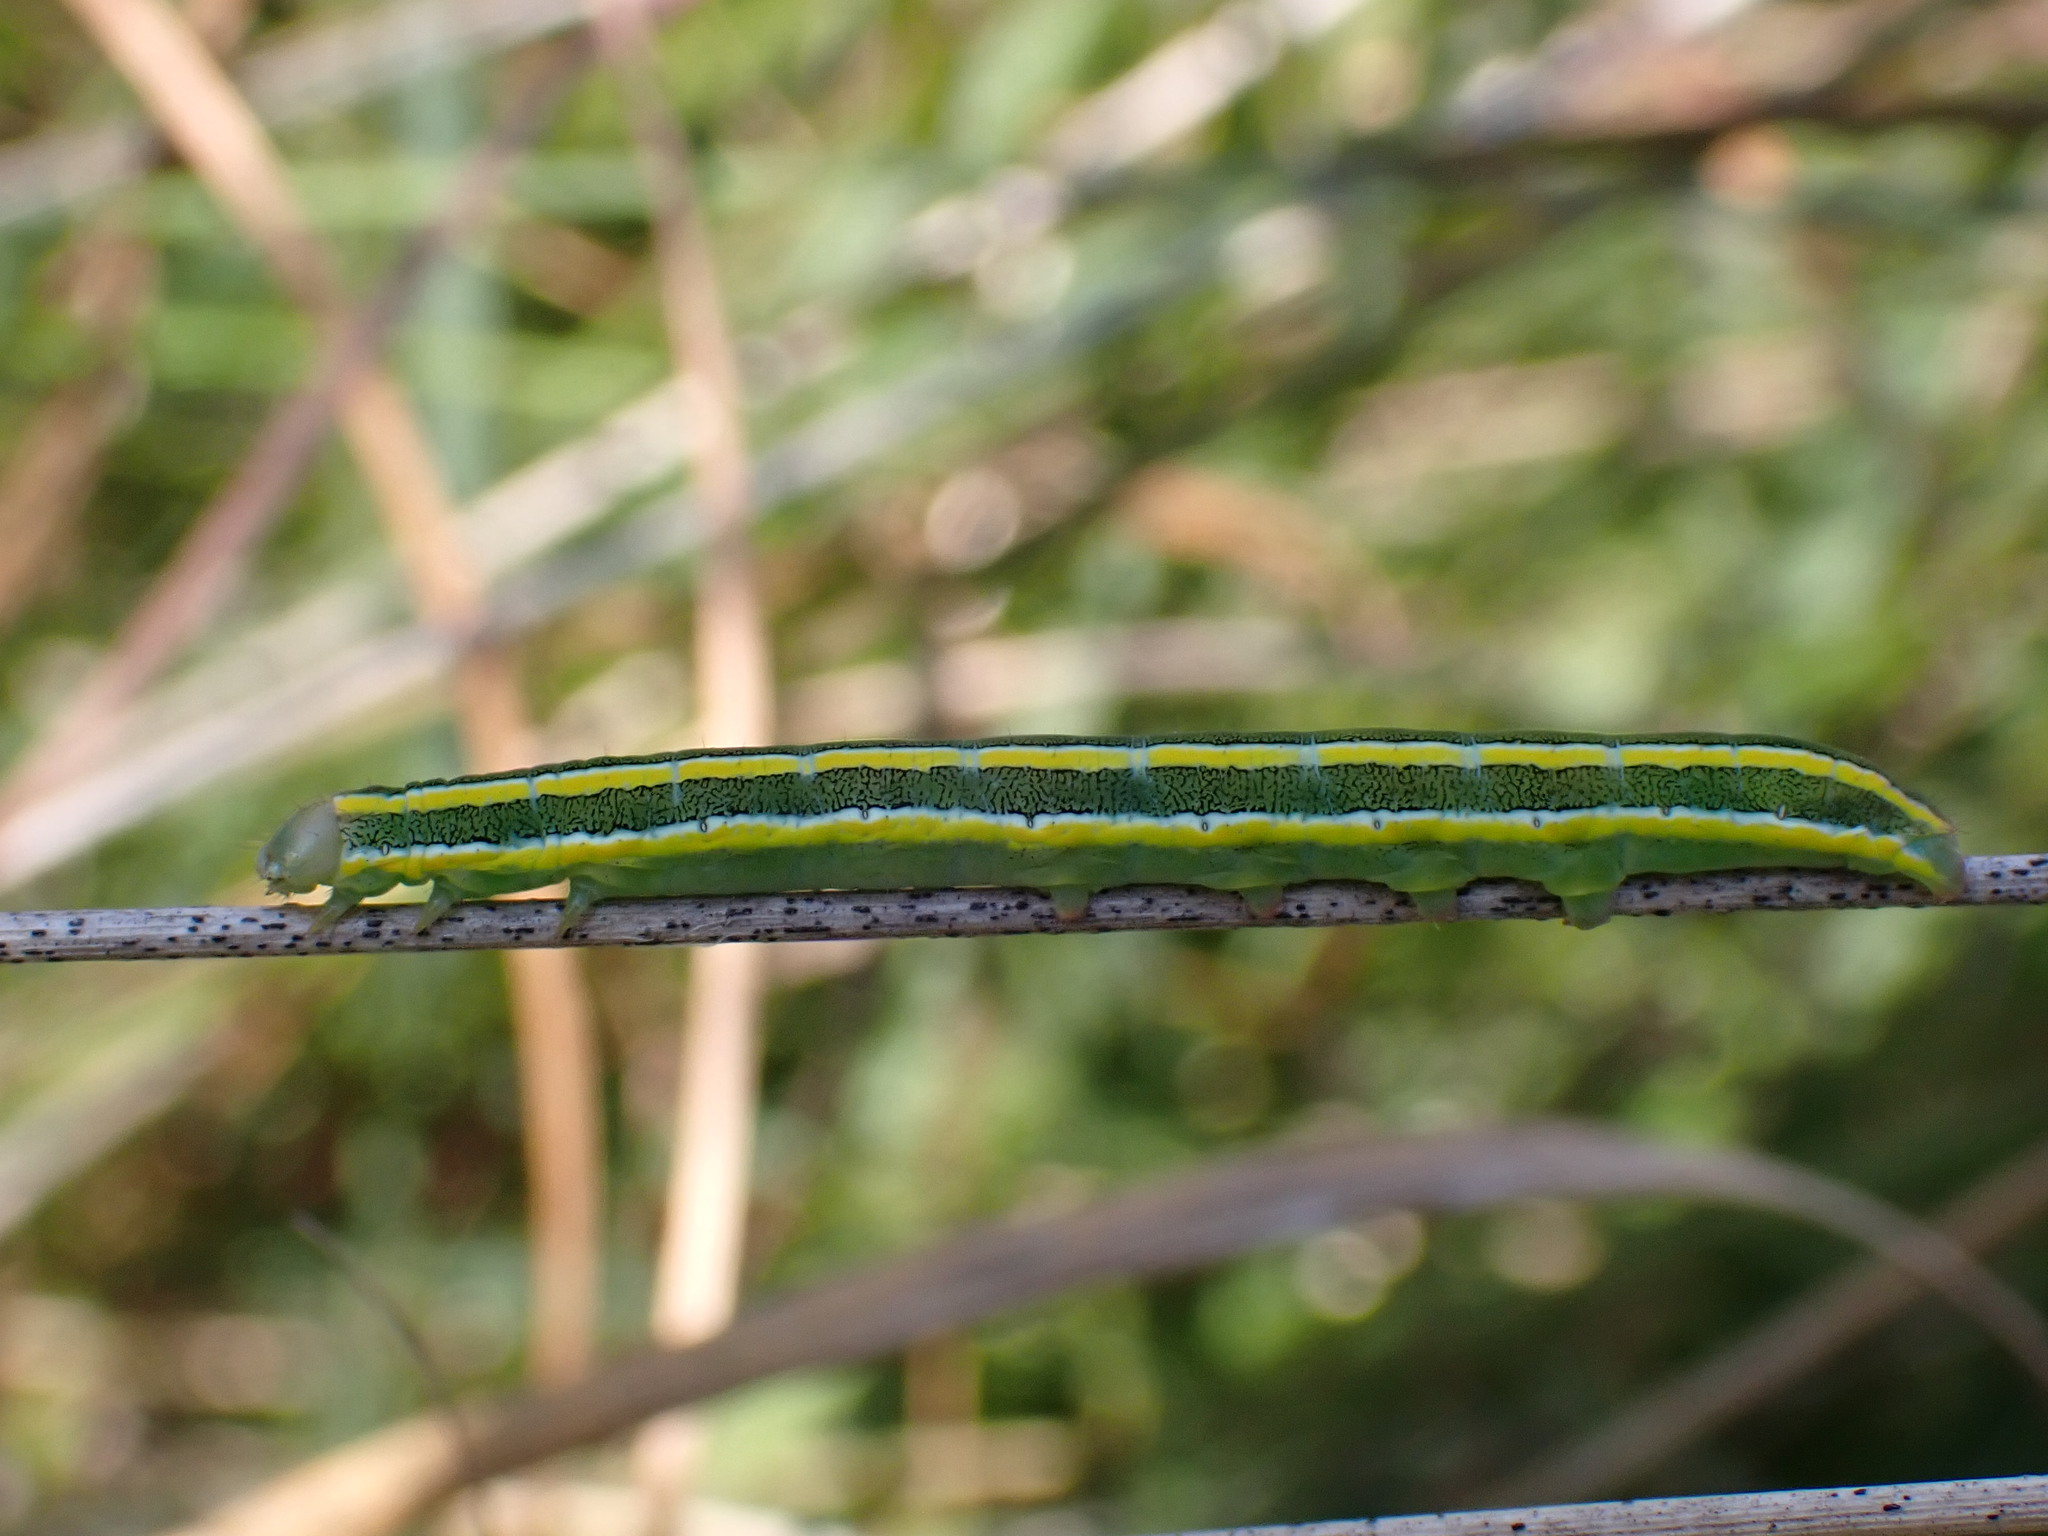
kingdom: Animalia
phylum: Arthropoda
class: Insecta
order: Lepidoptera
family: Noctuidae
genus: Ceramica
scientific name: Ceramica pisi
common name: Broom moth
